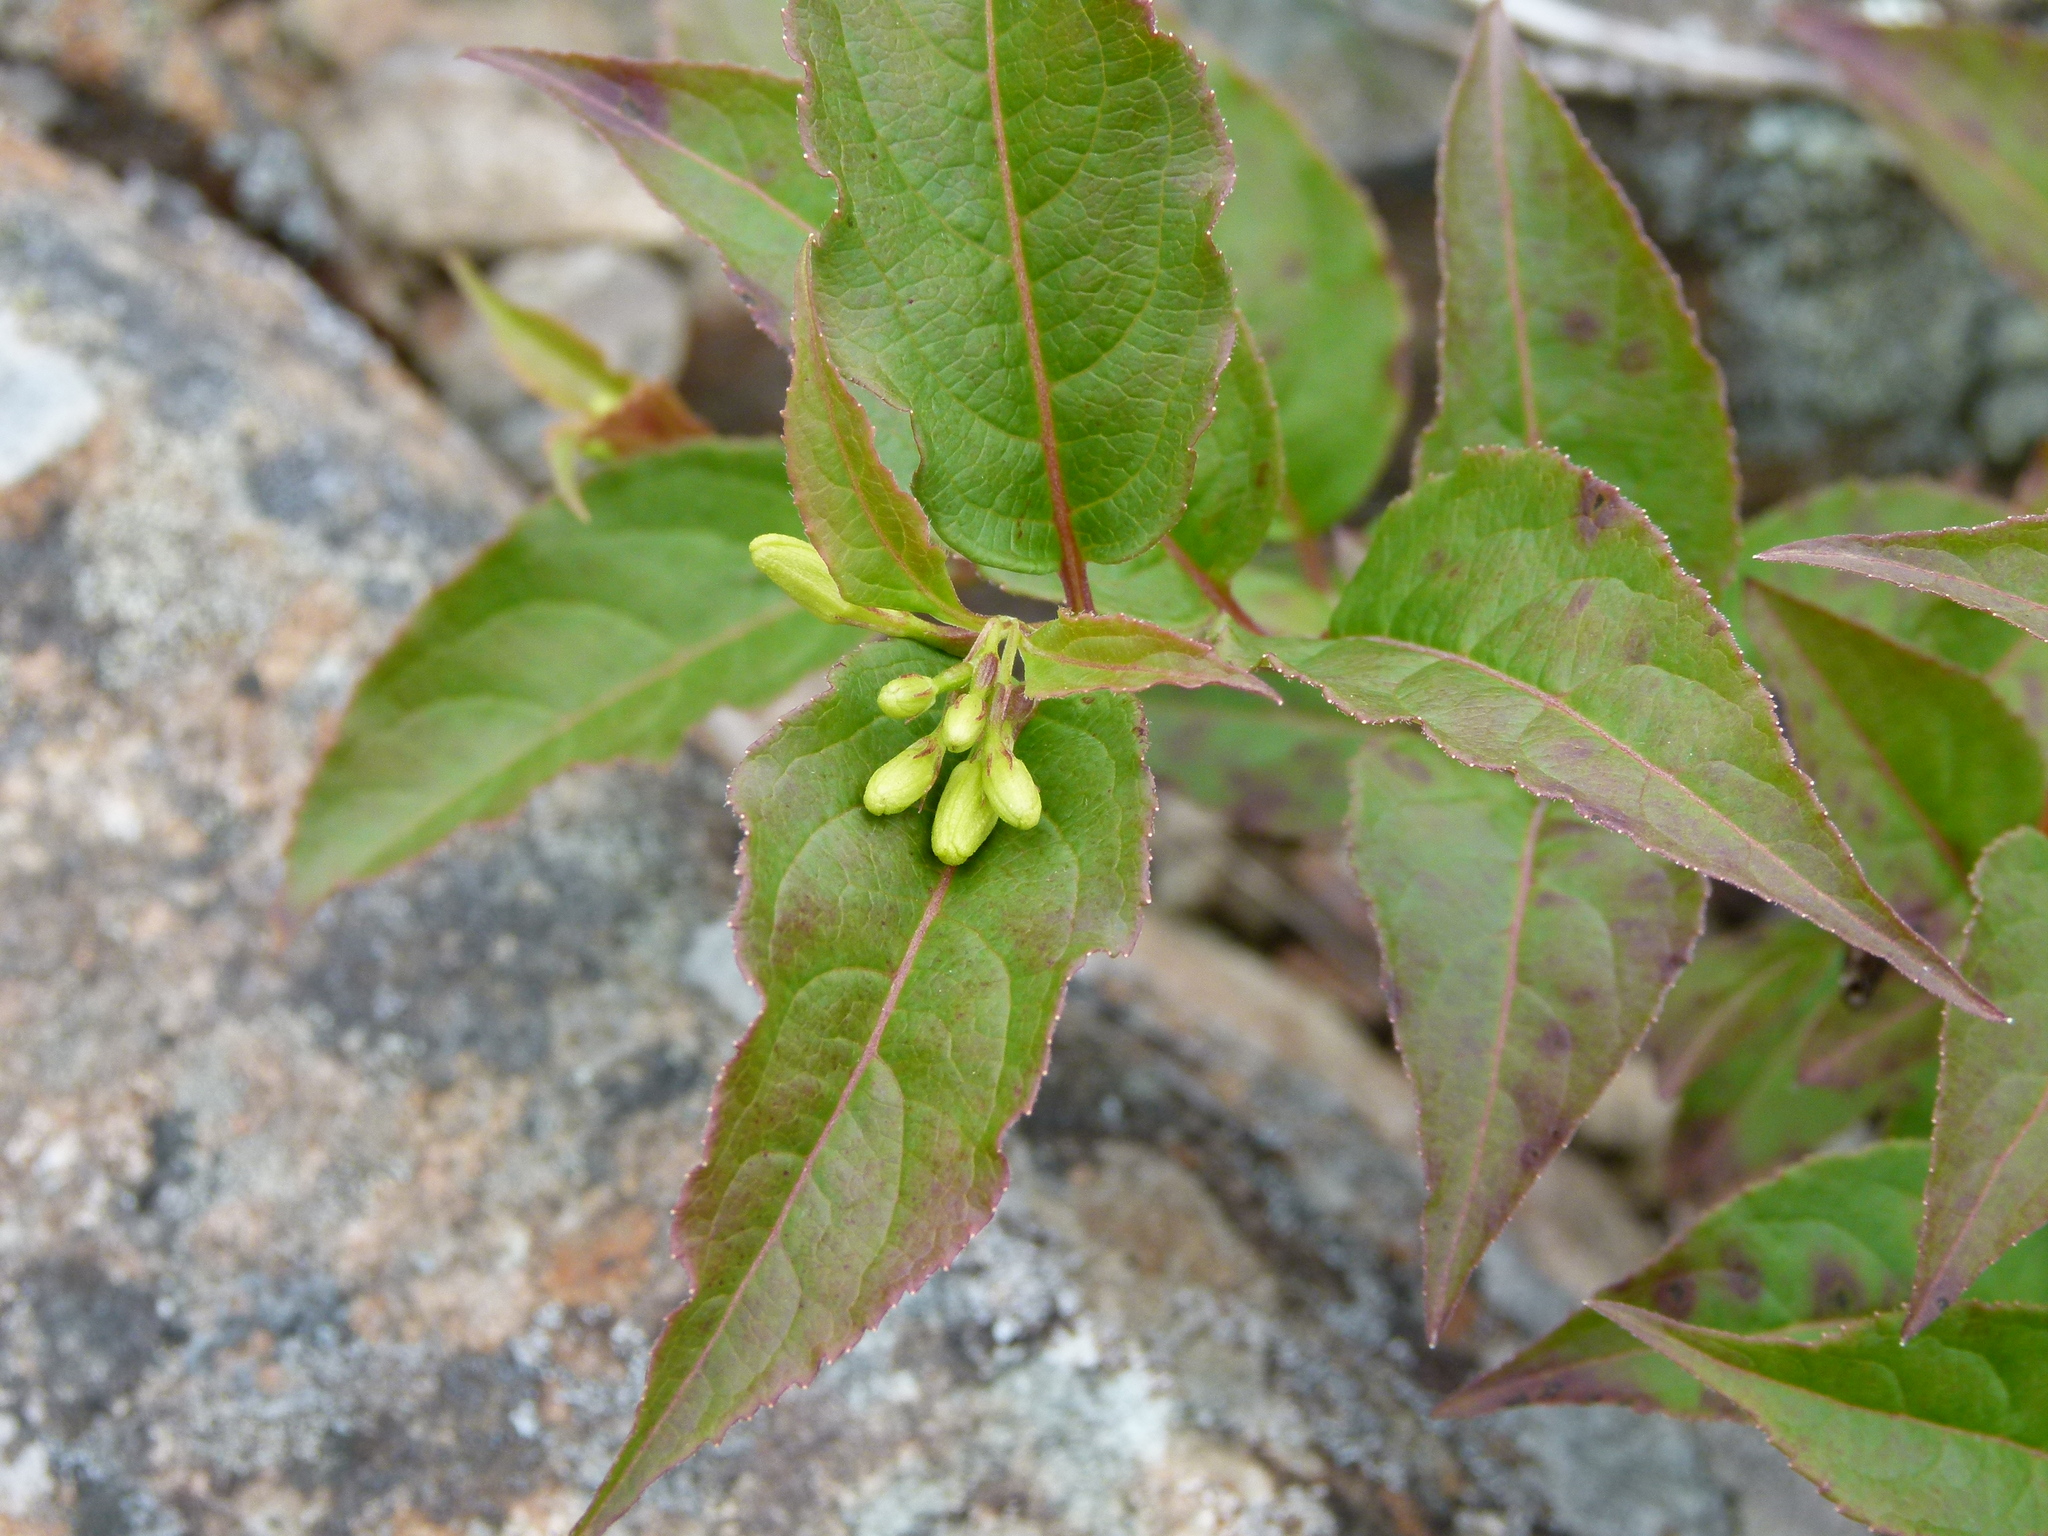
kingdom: Plantae
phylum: Tracheophyta
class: Magnoliopsida
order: Dipsacales
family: Caprifoliaceae
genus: Diervilla
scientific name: Diervilla lonicera
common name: Bush-honeysuckle
